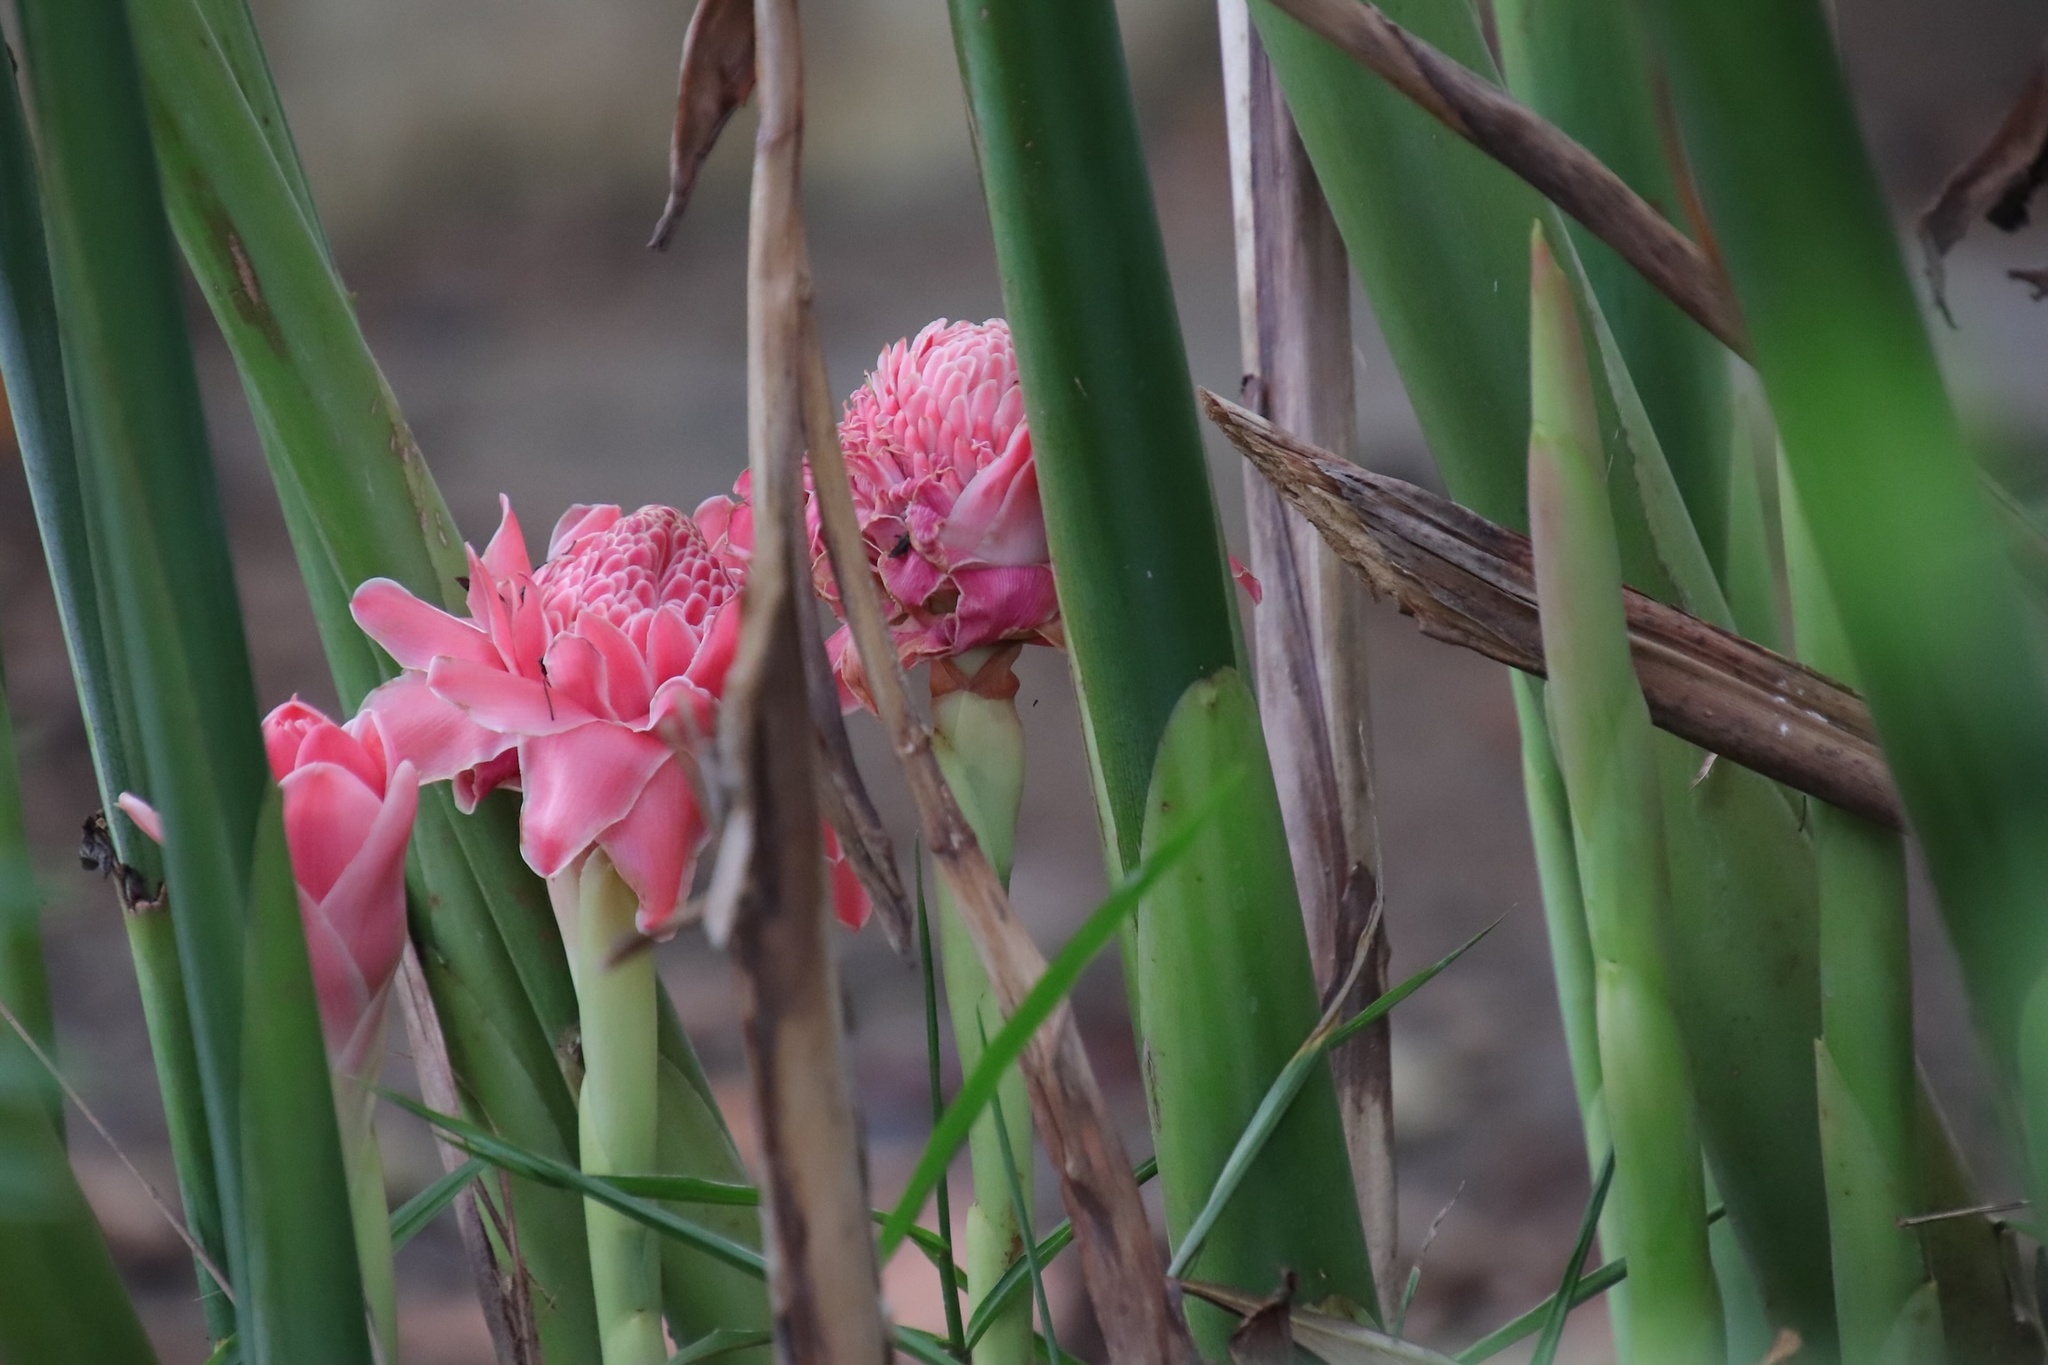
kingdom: Plantae
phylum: Tracheophyta
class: Liliopsida
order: Zingiberales
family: Zingiberaceae
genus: Etlingera
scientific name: Etlingera elatior
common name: Philippine waxflower
